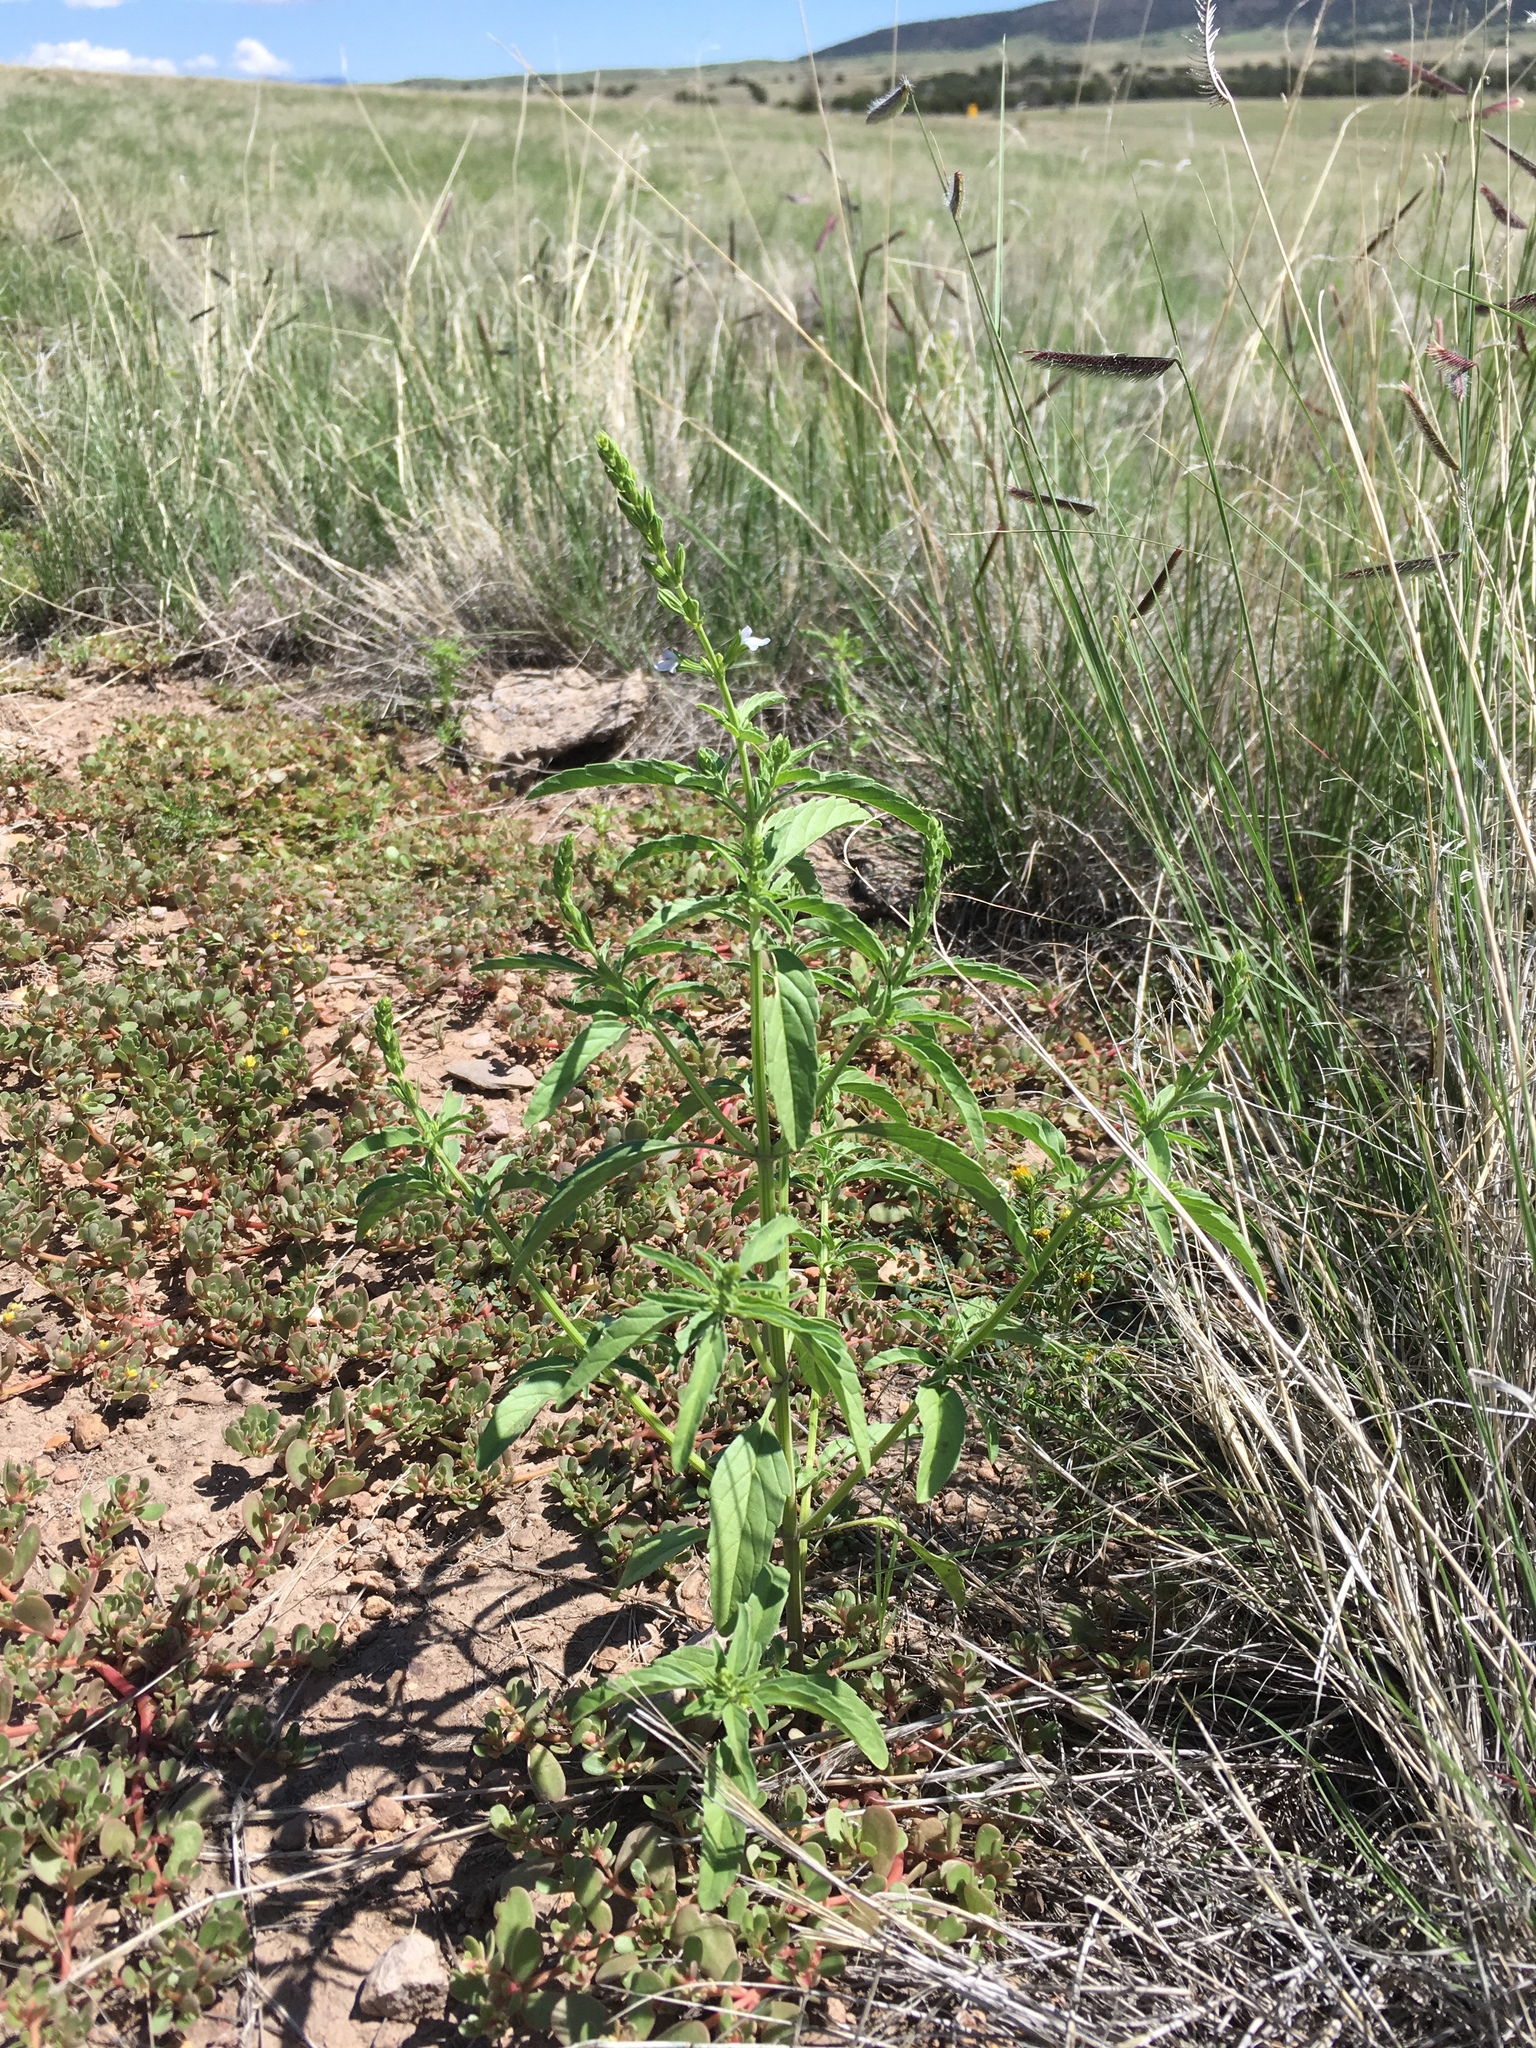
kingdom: Plantae
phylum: Tracheophyta
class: Magnoliopsida
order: Lamiales
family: Lamiaceae
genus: Salvia
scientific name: Salvia reflexa
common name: Mintweed
